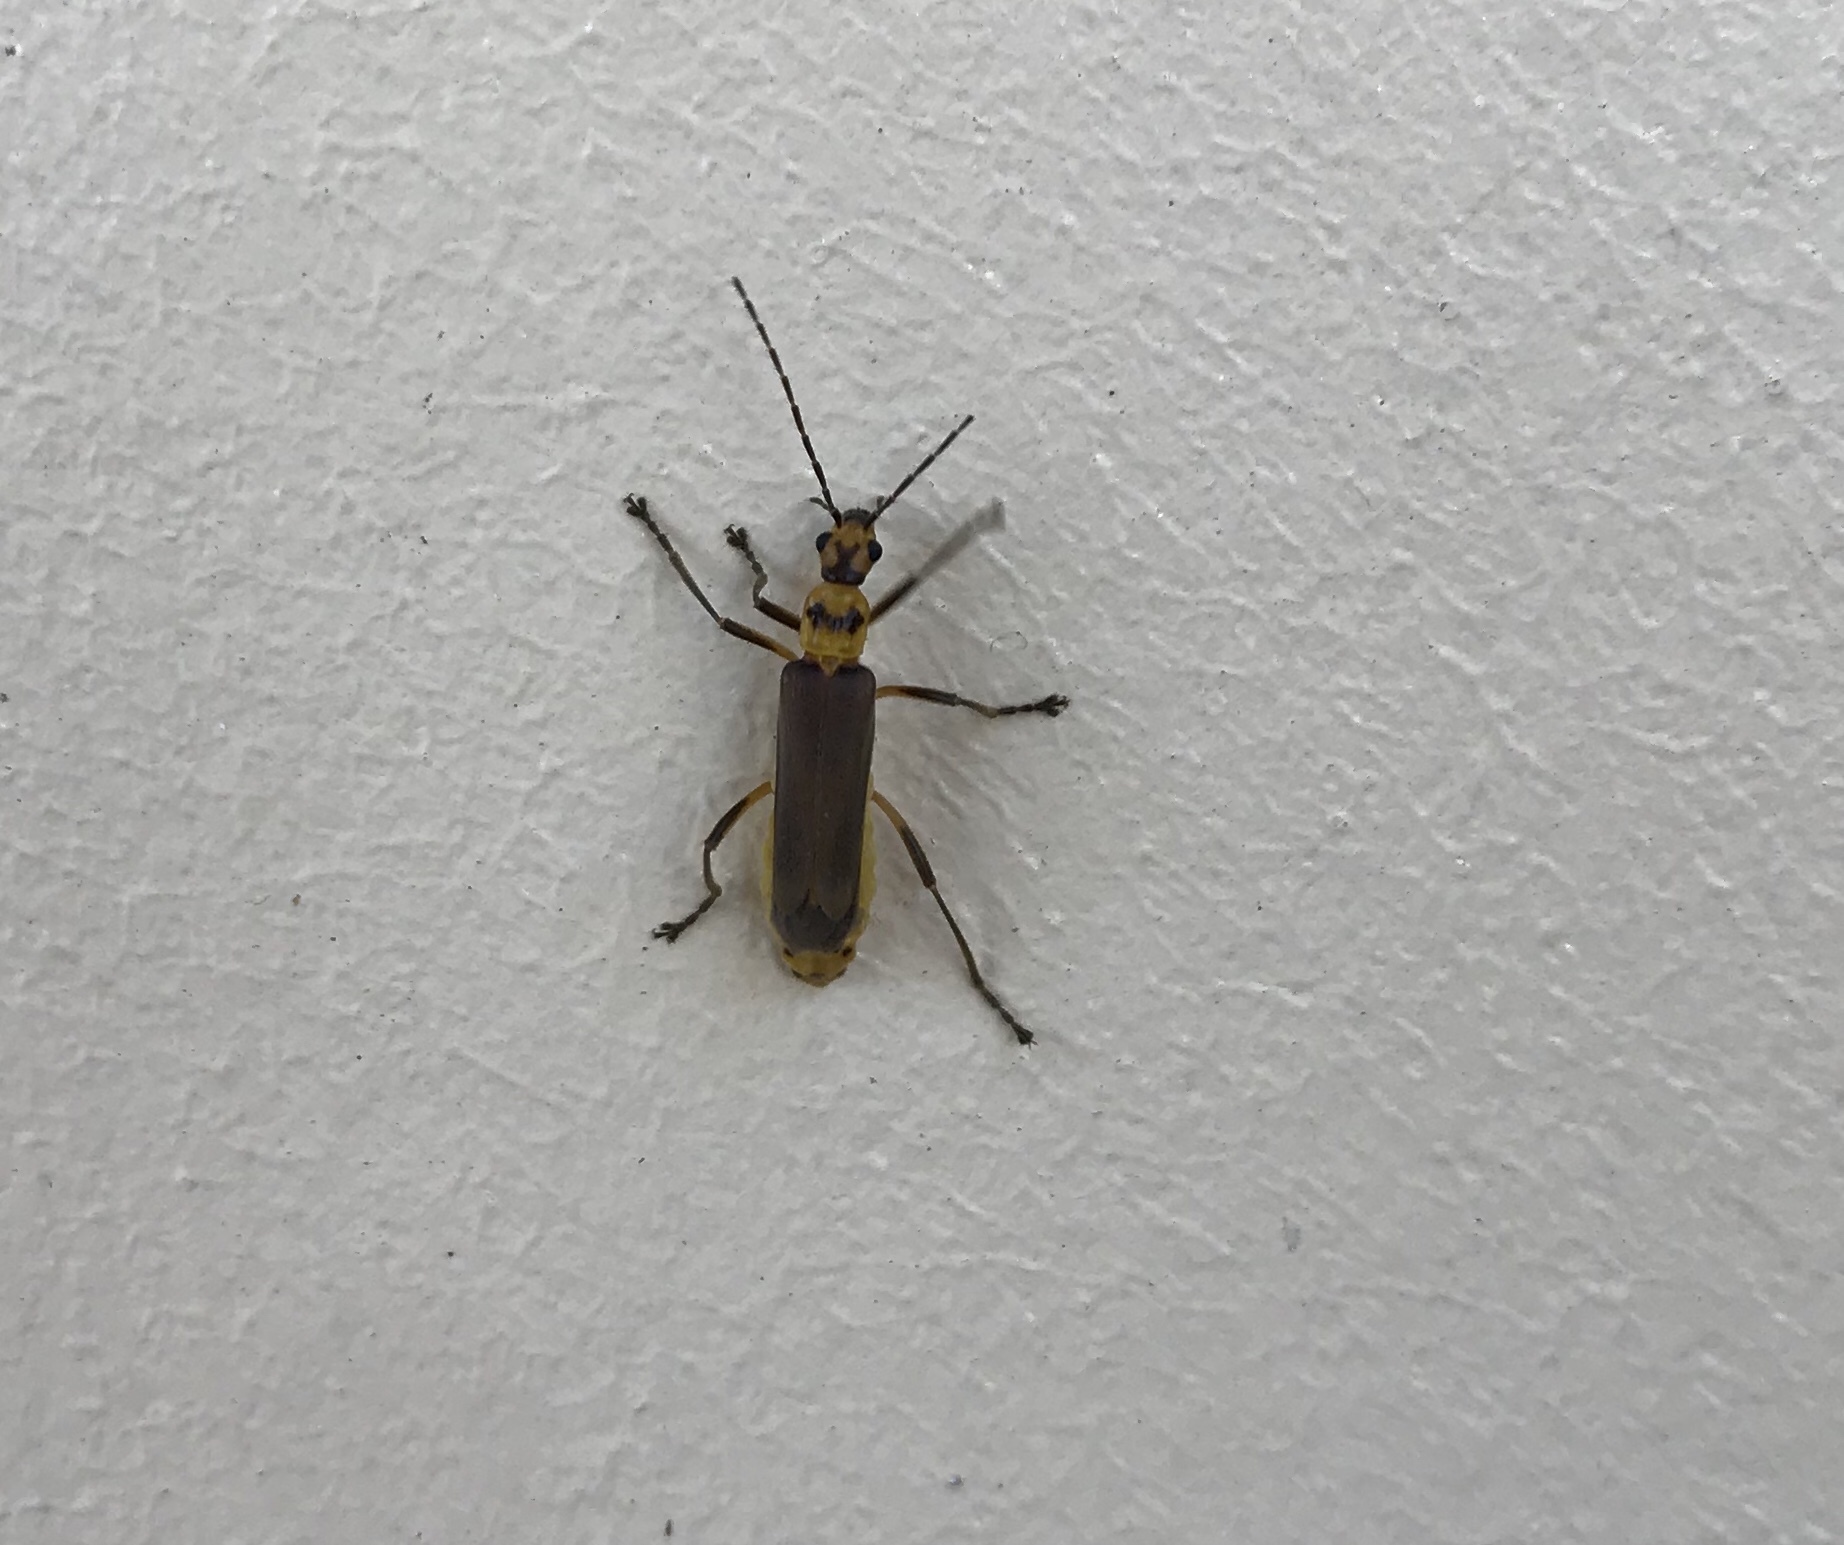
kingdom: Animalia
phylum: Arthropoda
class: Insecta
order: Coleoptera
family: Cantharidae
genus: Chauliognathus
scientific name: Chauliognathus
